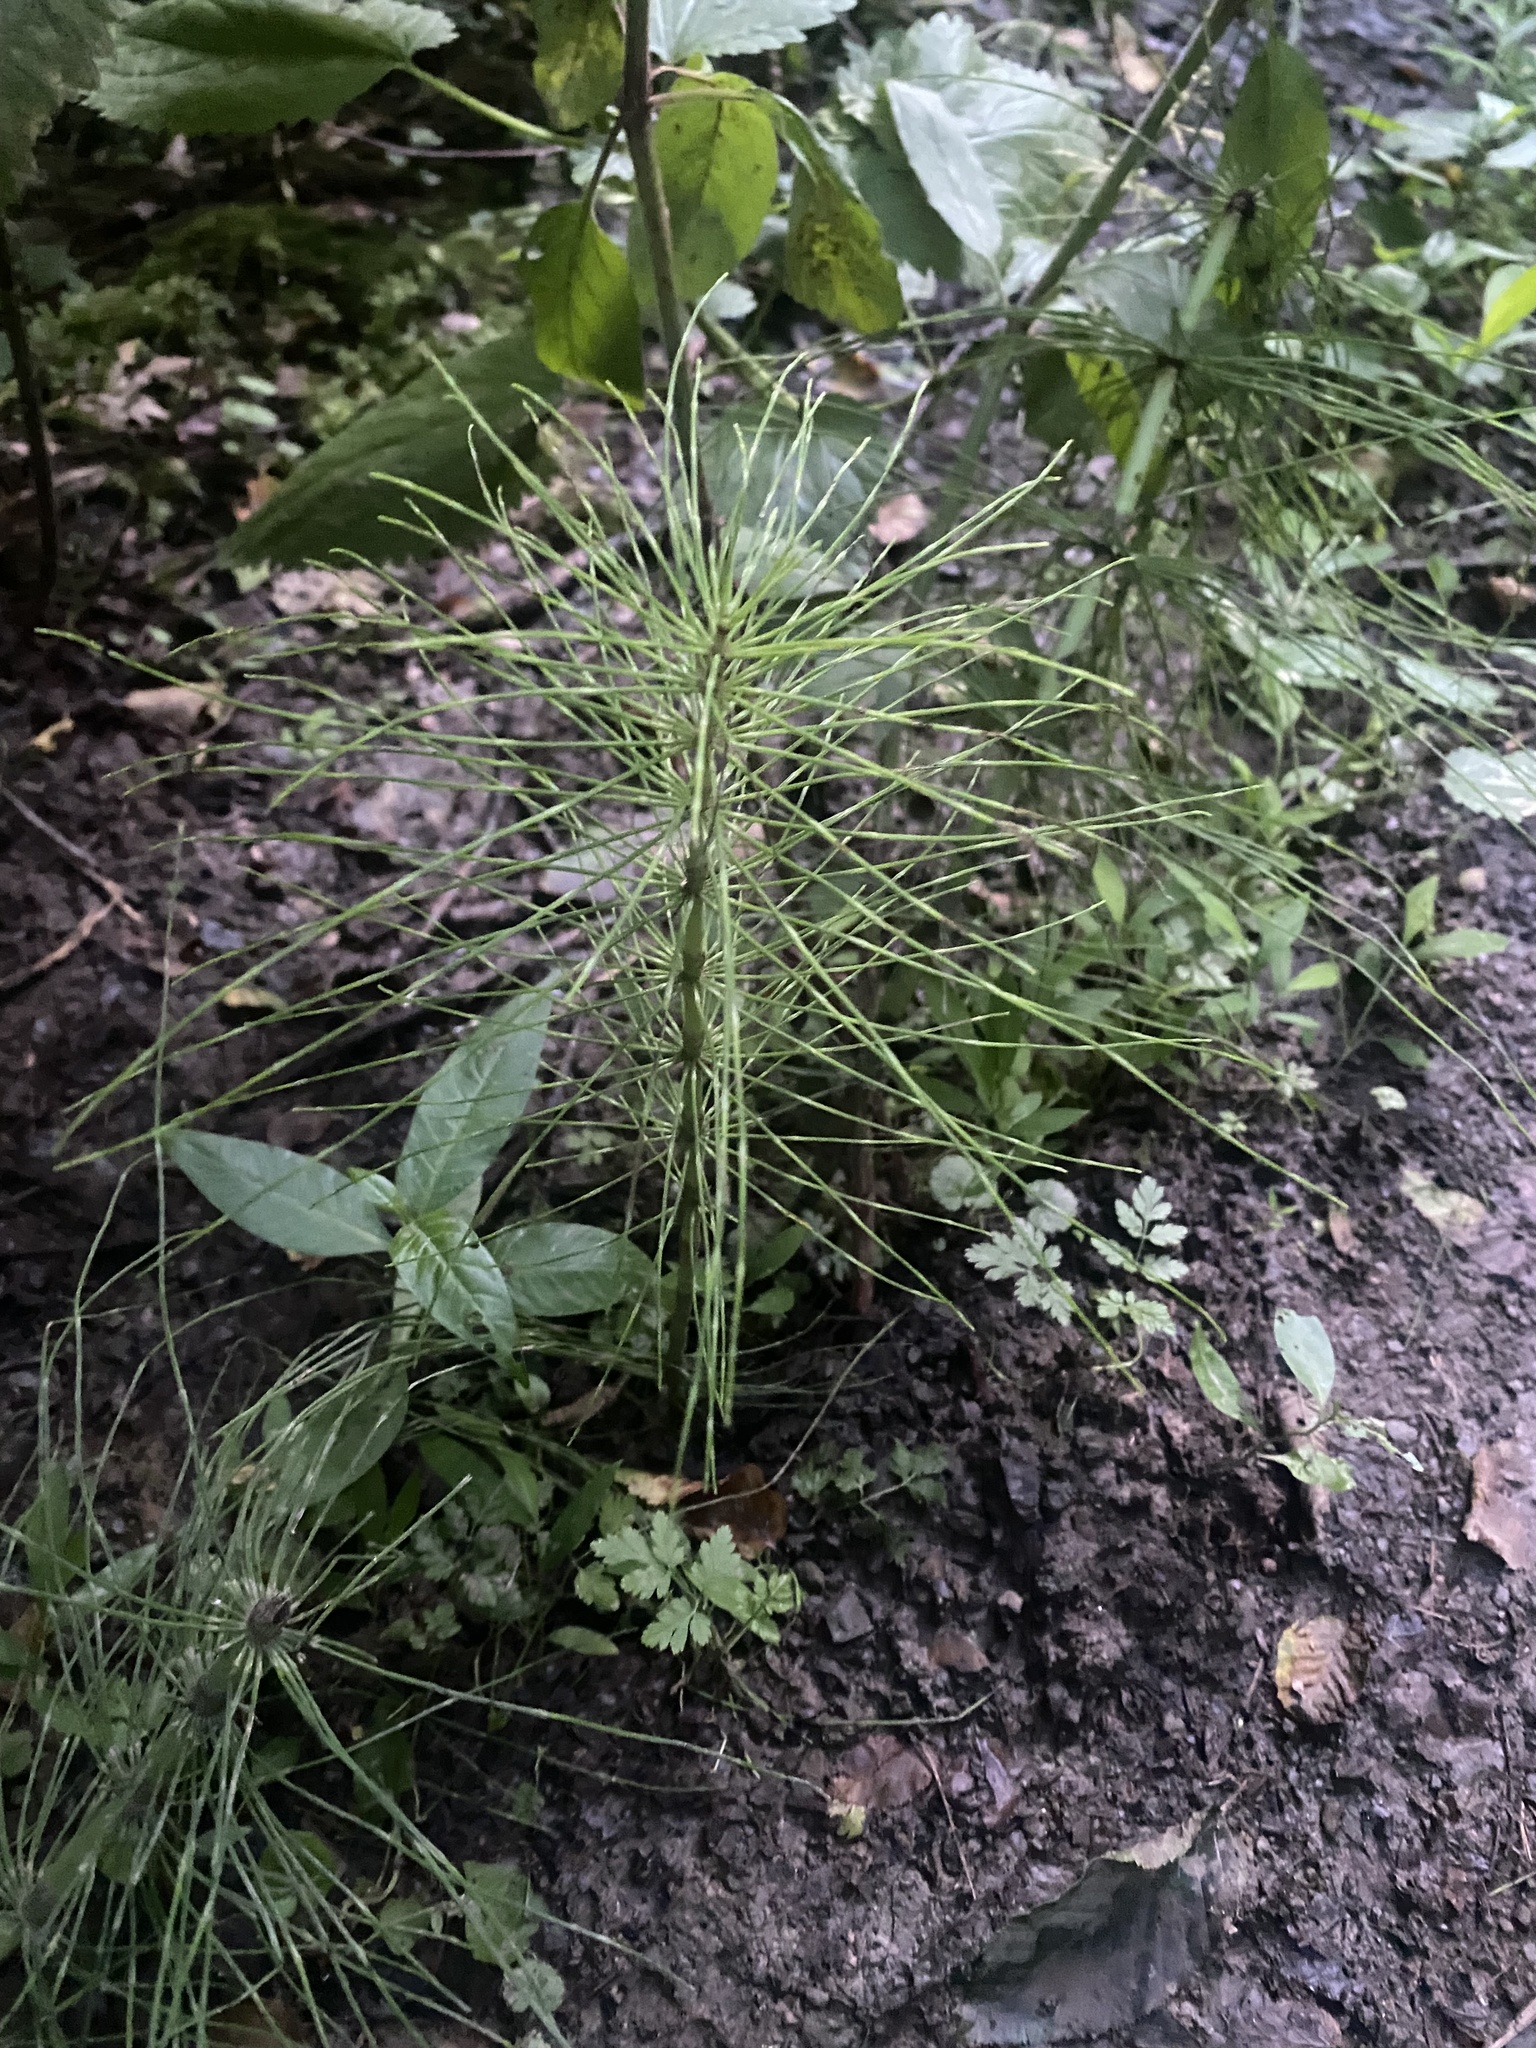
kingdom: Plantae
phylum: Tracheophyta
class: Polypodiopsida
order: Equisetales
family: Equisetaceae
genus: Equisetum
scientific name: Equisetum telmateia
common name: Great horsetail
